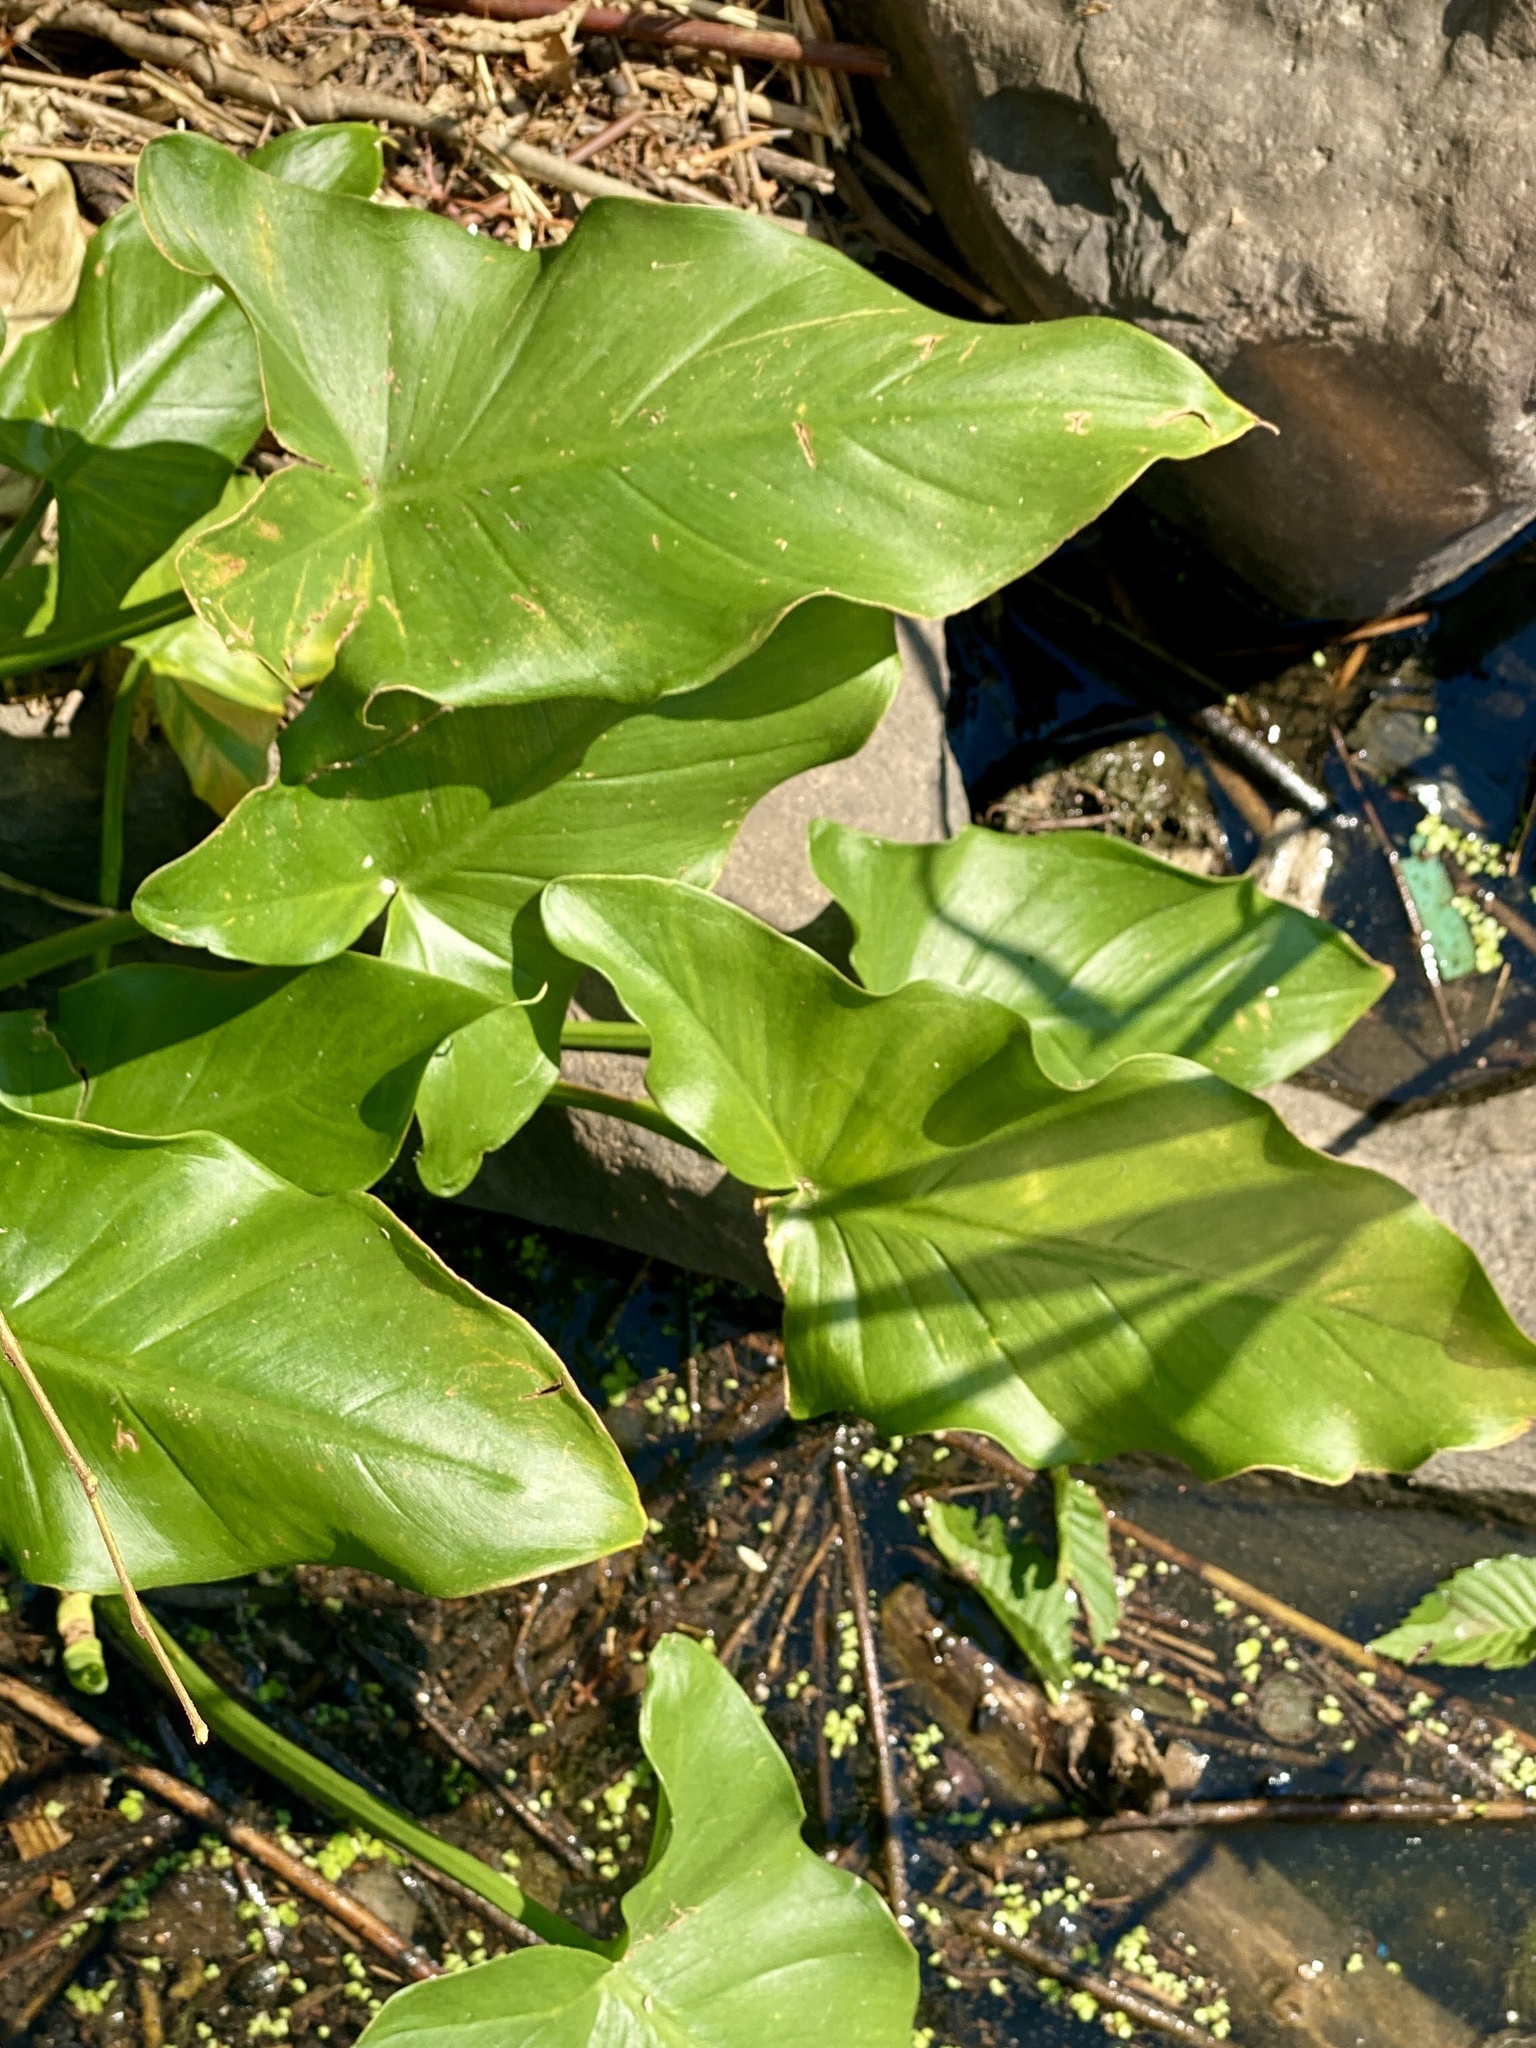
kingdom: Plantae
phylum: Tracheophyta
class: Liliopsida
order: Alismatales
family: Araceae
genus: Peltandra
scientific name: Peltandra virginica
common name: Arrow arum
